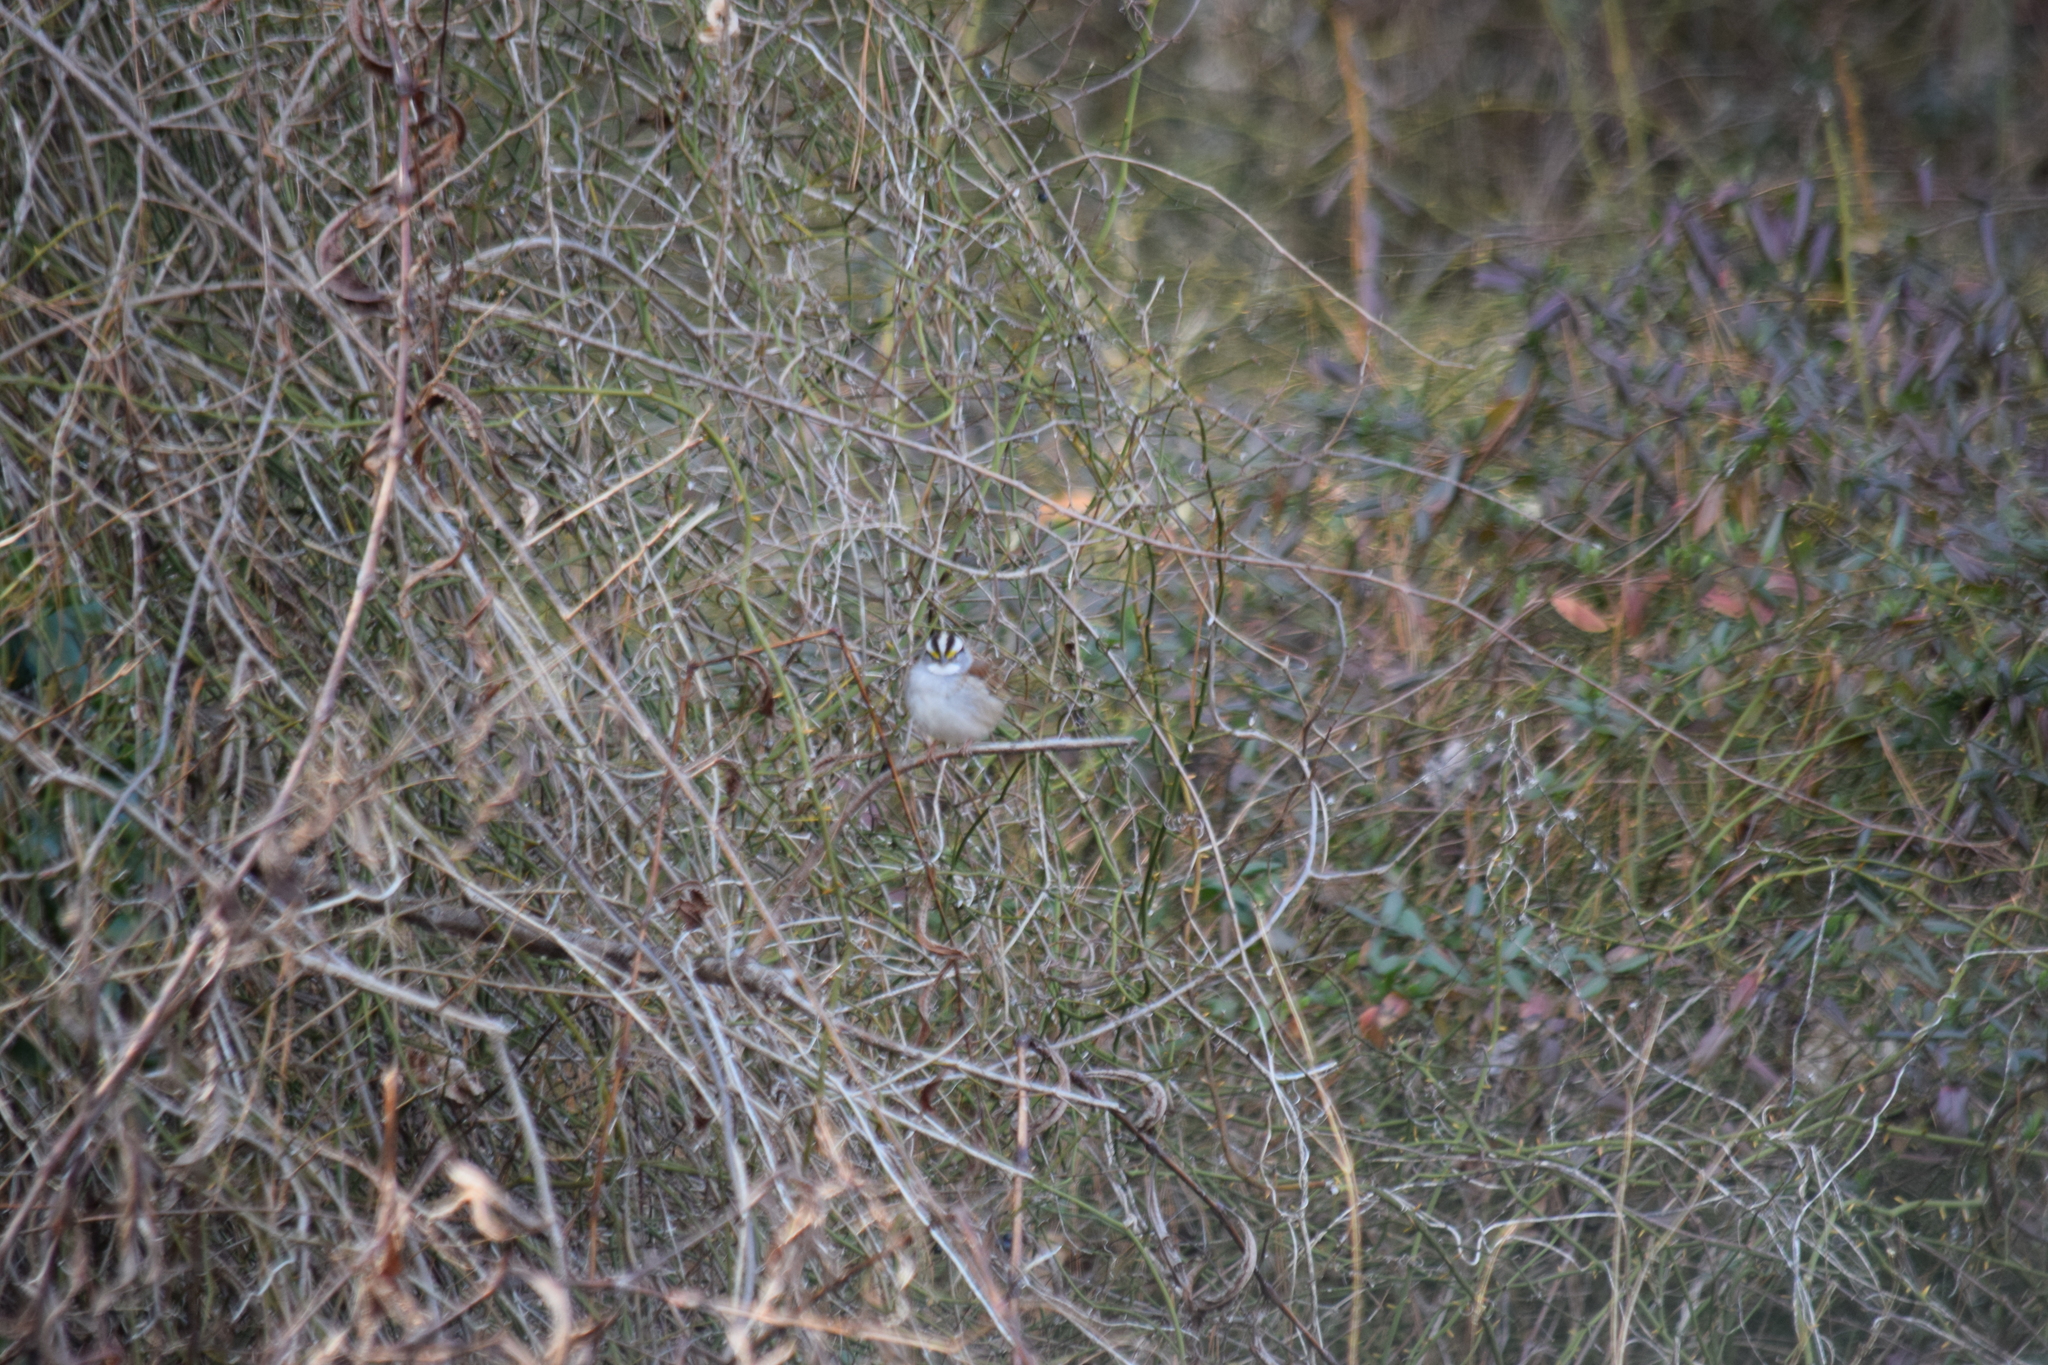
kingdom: Animalia
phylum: Chordata
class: Aves
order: Passeriformes
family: Passerellidae
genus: Zonotrichia
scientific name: Zonotrichia albicollis
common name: White-throated sparrow
